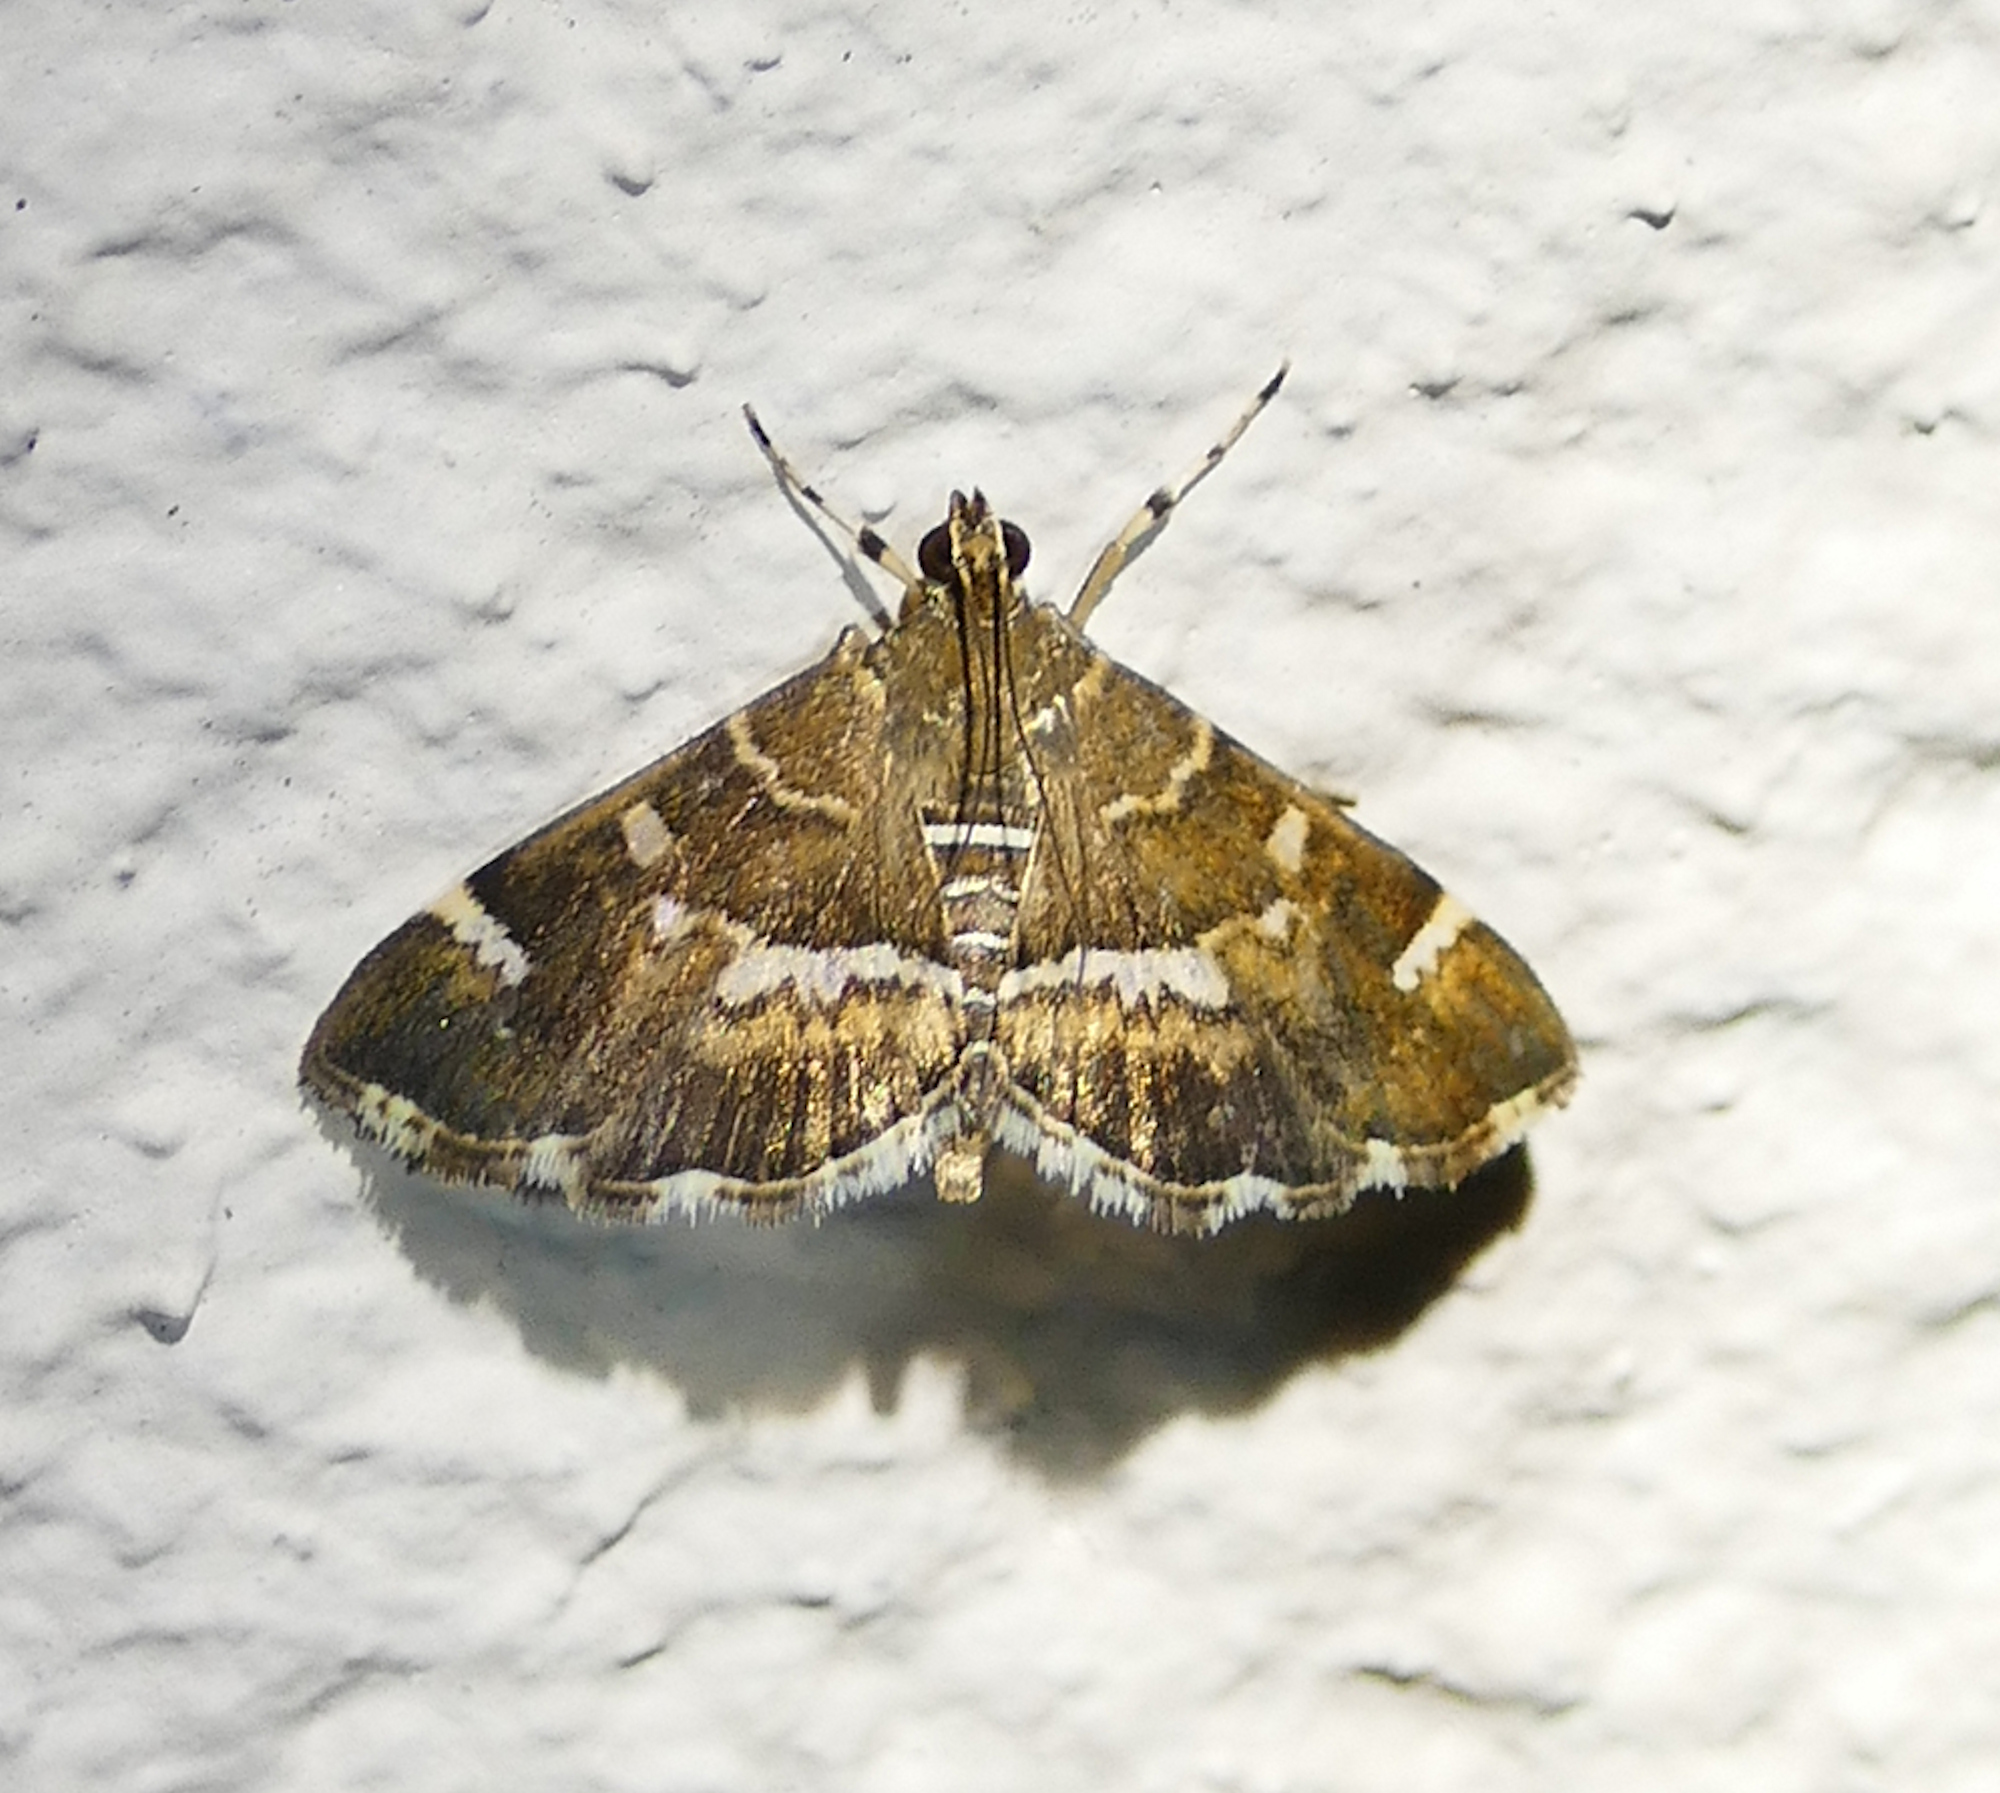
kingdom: Animalia
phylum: Arthropoda
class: Insecta
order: Lepidoptera
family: Crambidae
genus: Hymenia
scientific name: Hymenia perspectalis
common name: Spotted beet webworm
